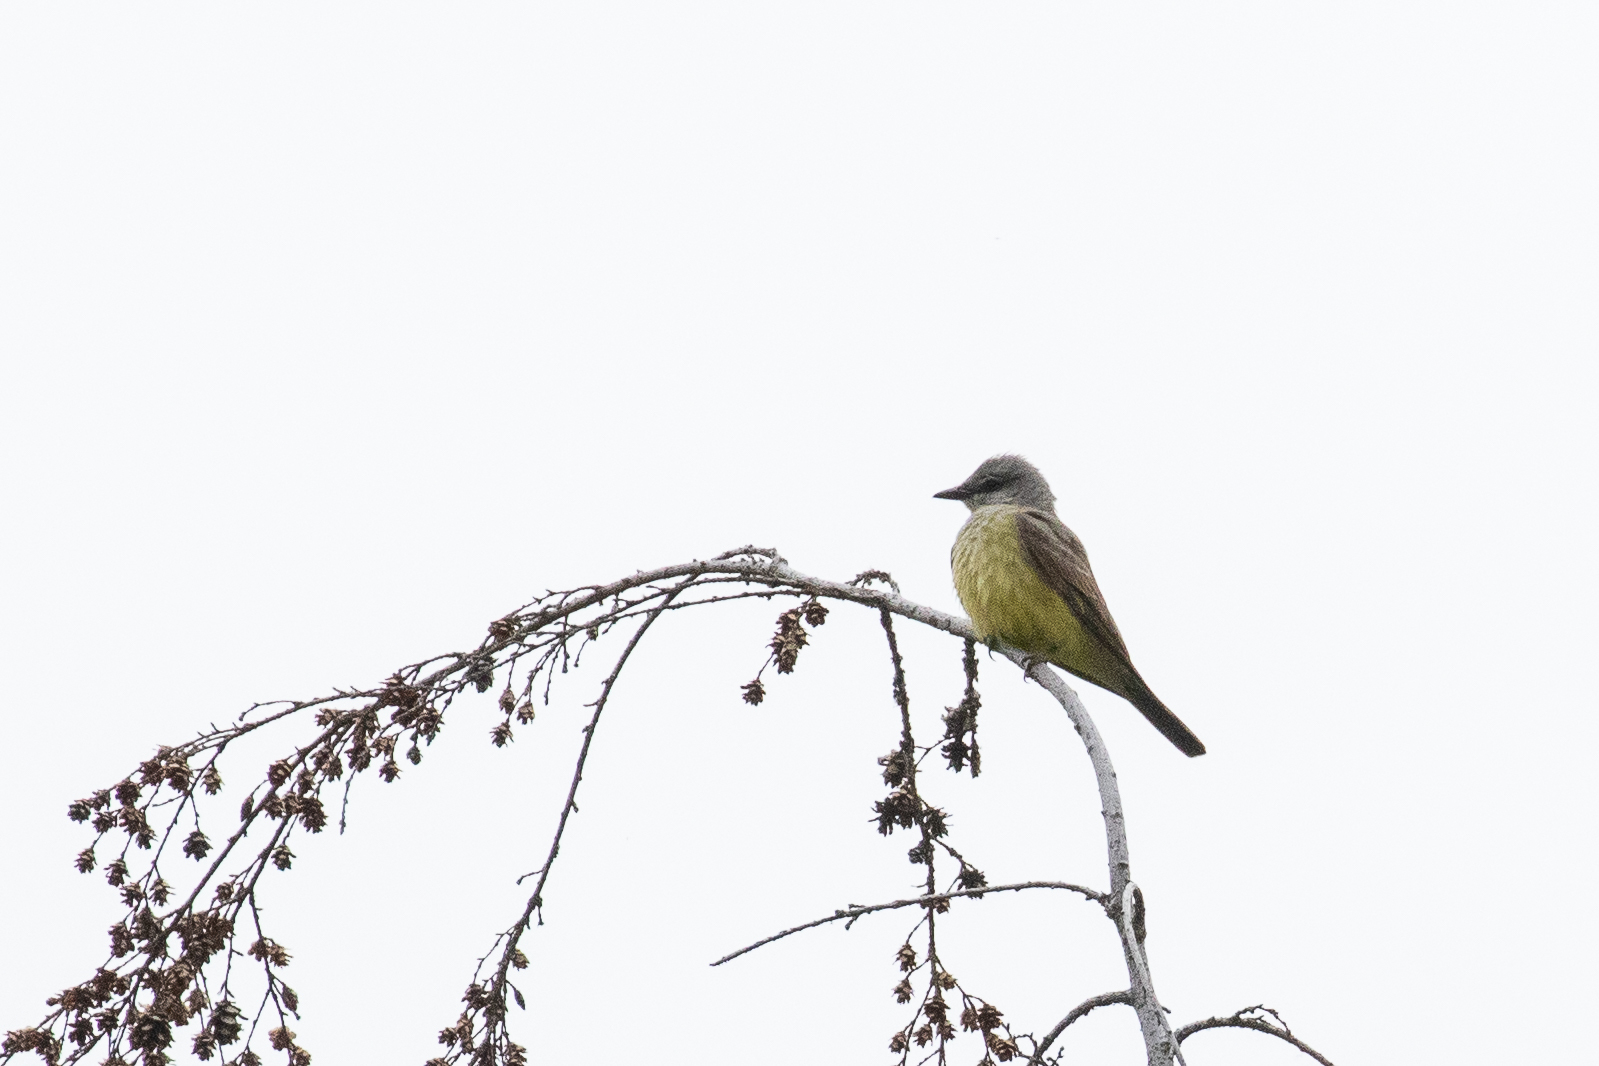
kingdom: Animalia
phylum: Chordata
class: Aves
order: Passeriformes
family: Tyrannidae
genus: Tyrannus
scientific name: Tyrannus verticalis
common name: Western kingbird
